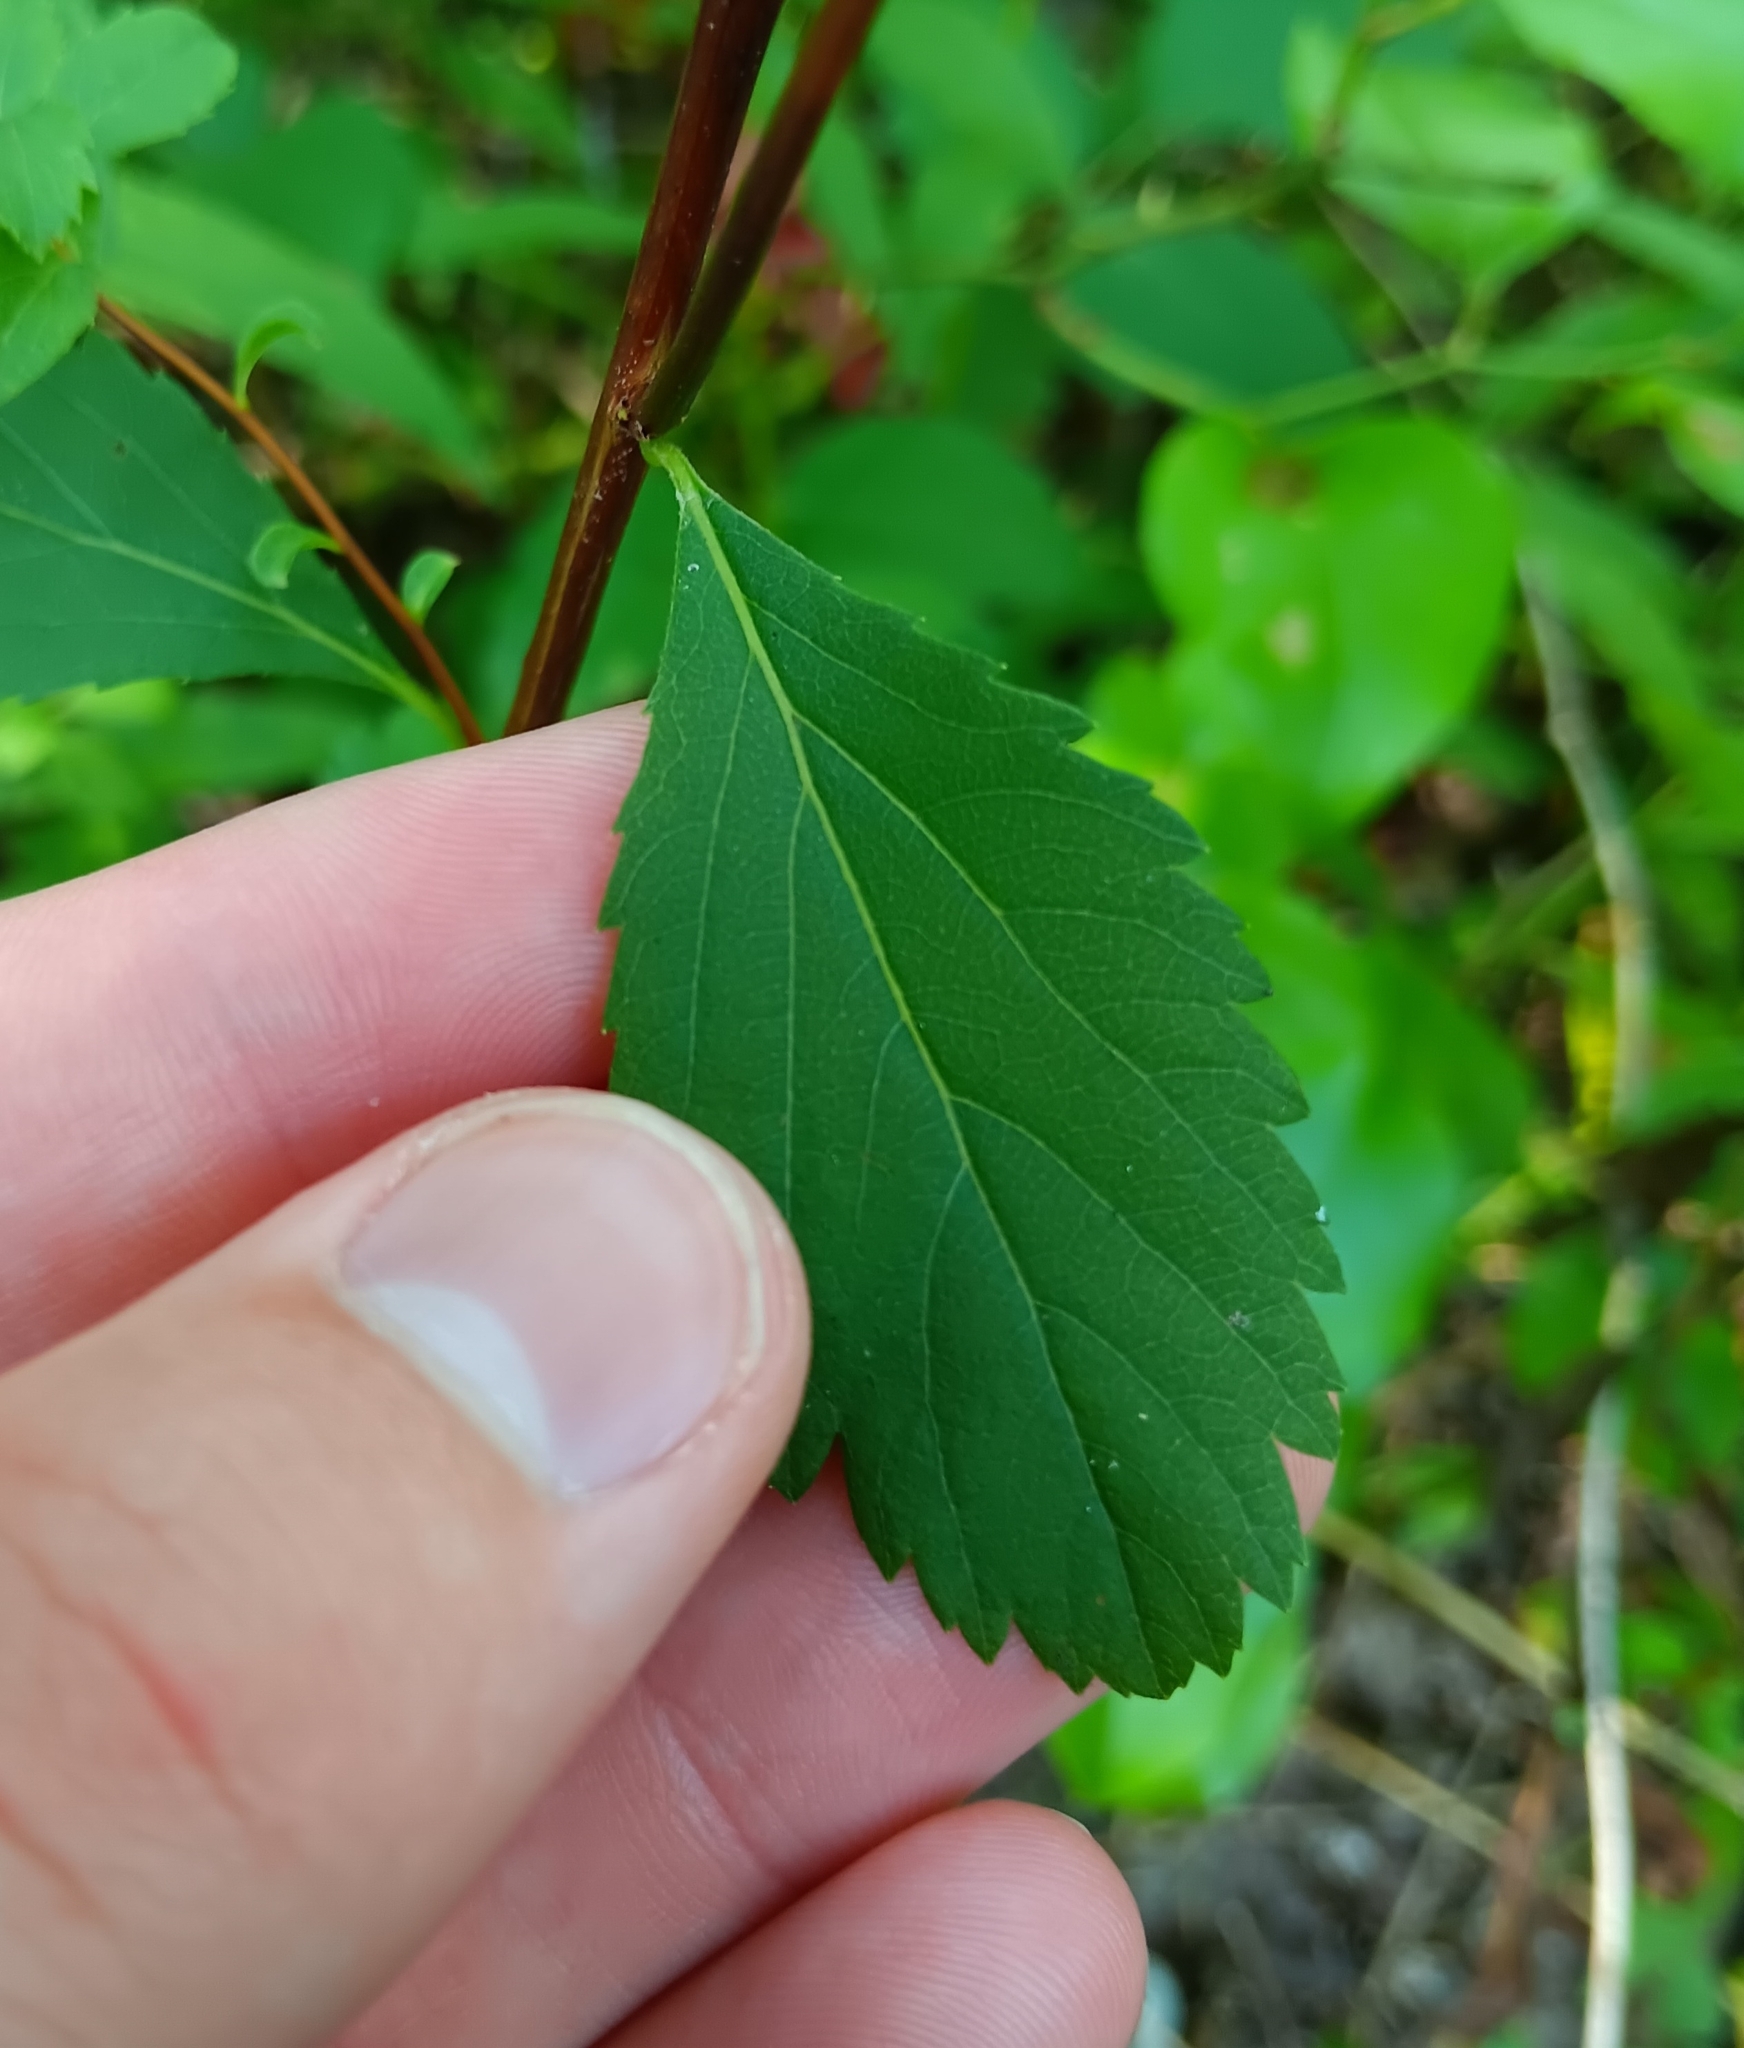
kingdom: Plantae
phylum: Tracheophyta
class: Magnoliopsida
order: Rosales
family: Rosaceae
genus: Spiraea
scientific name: Spiraea alba
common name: Pale bridewort
